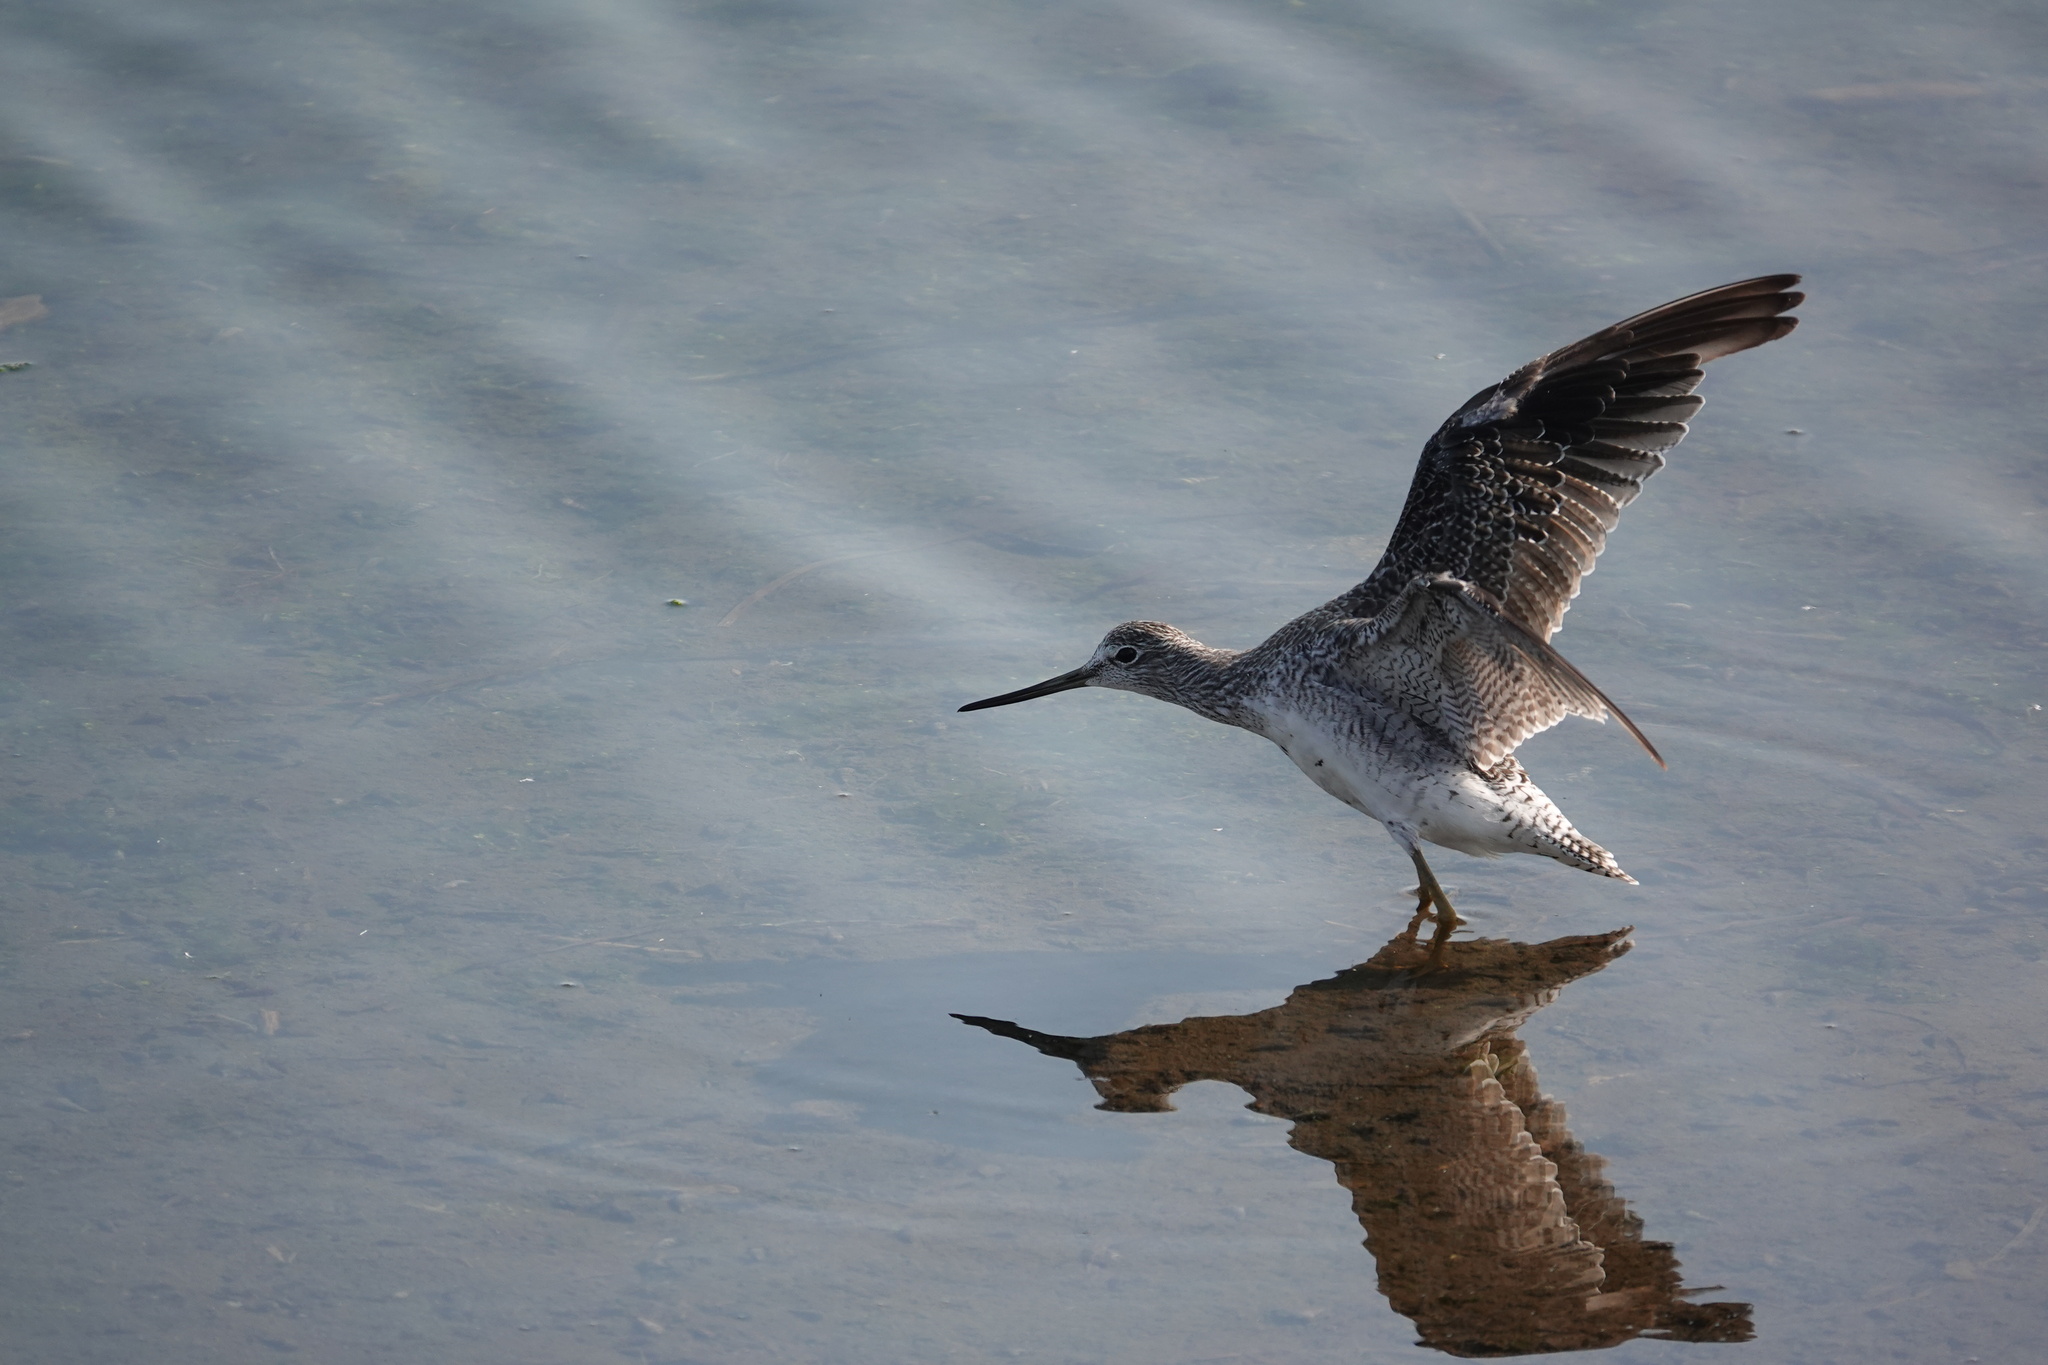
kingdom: Animalia
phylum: Chordata
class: Aves
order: Charadriiformes
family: Scolopacidae
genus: Tringa
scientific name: Tringa melanoleuca
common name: Greater yellowlegs
